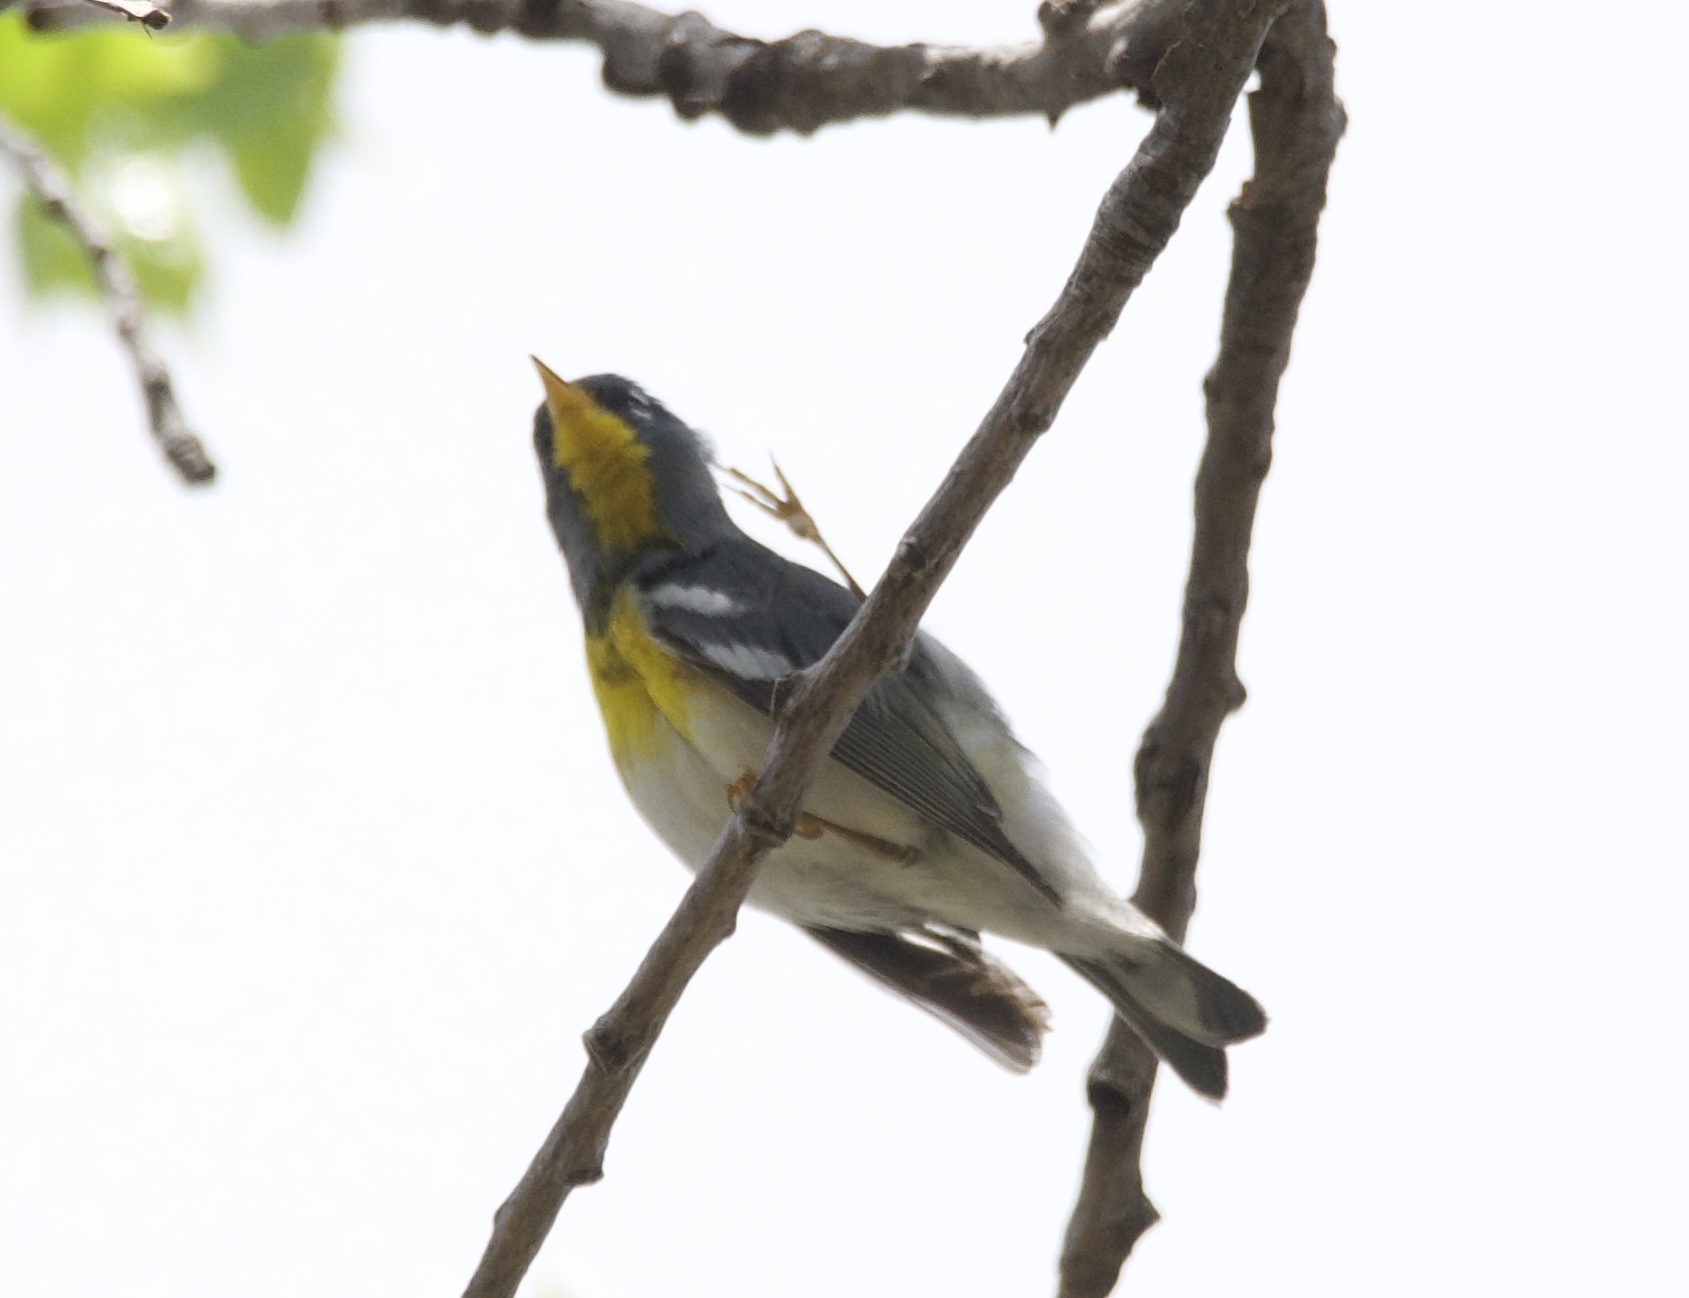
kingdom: Animalia
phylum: Chordata
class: Aves
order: Passeriformes
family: Parulidae
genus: Setophaga
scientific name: Setophaga americana
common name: Northern parula
